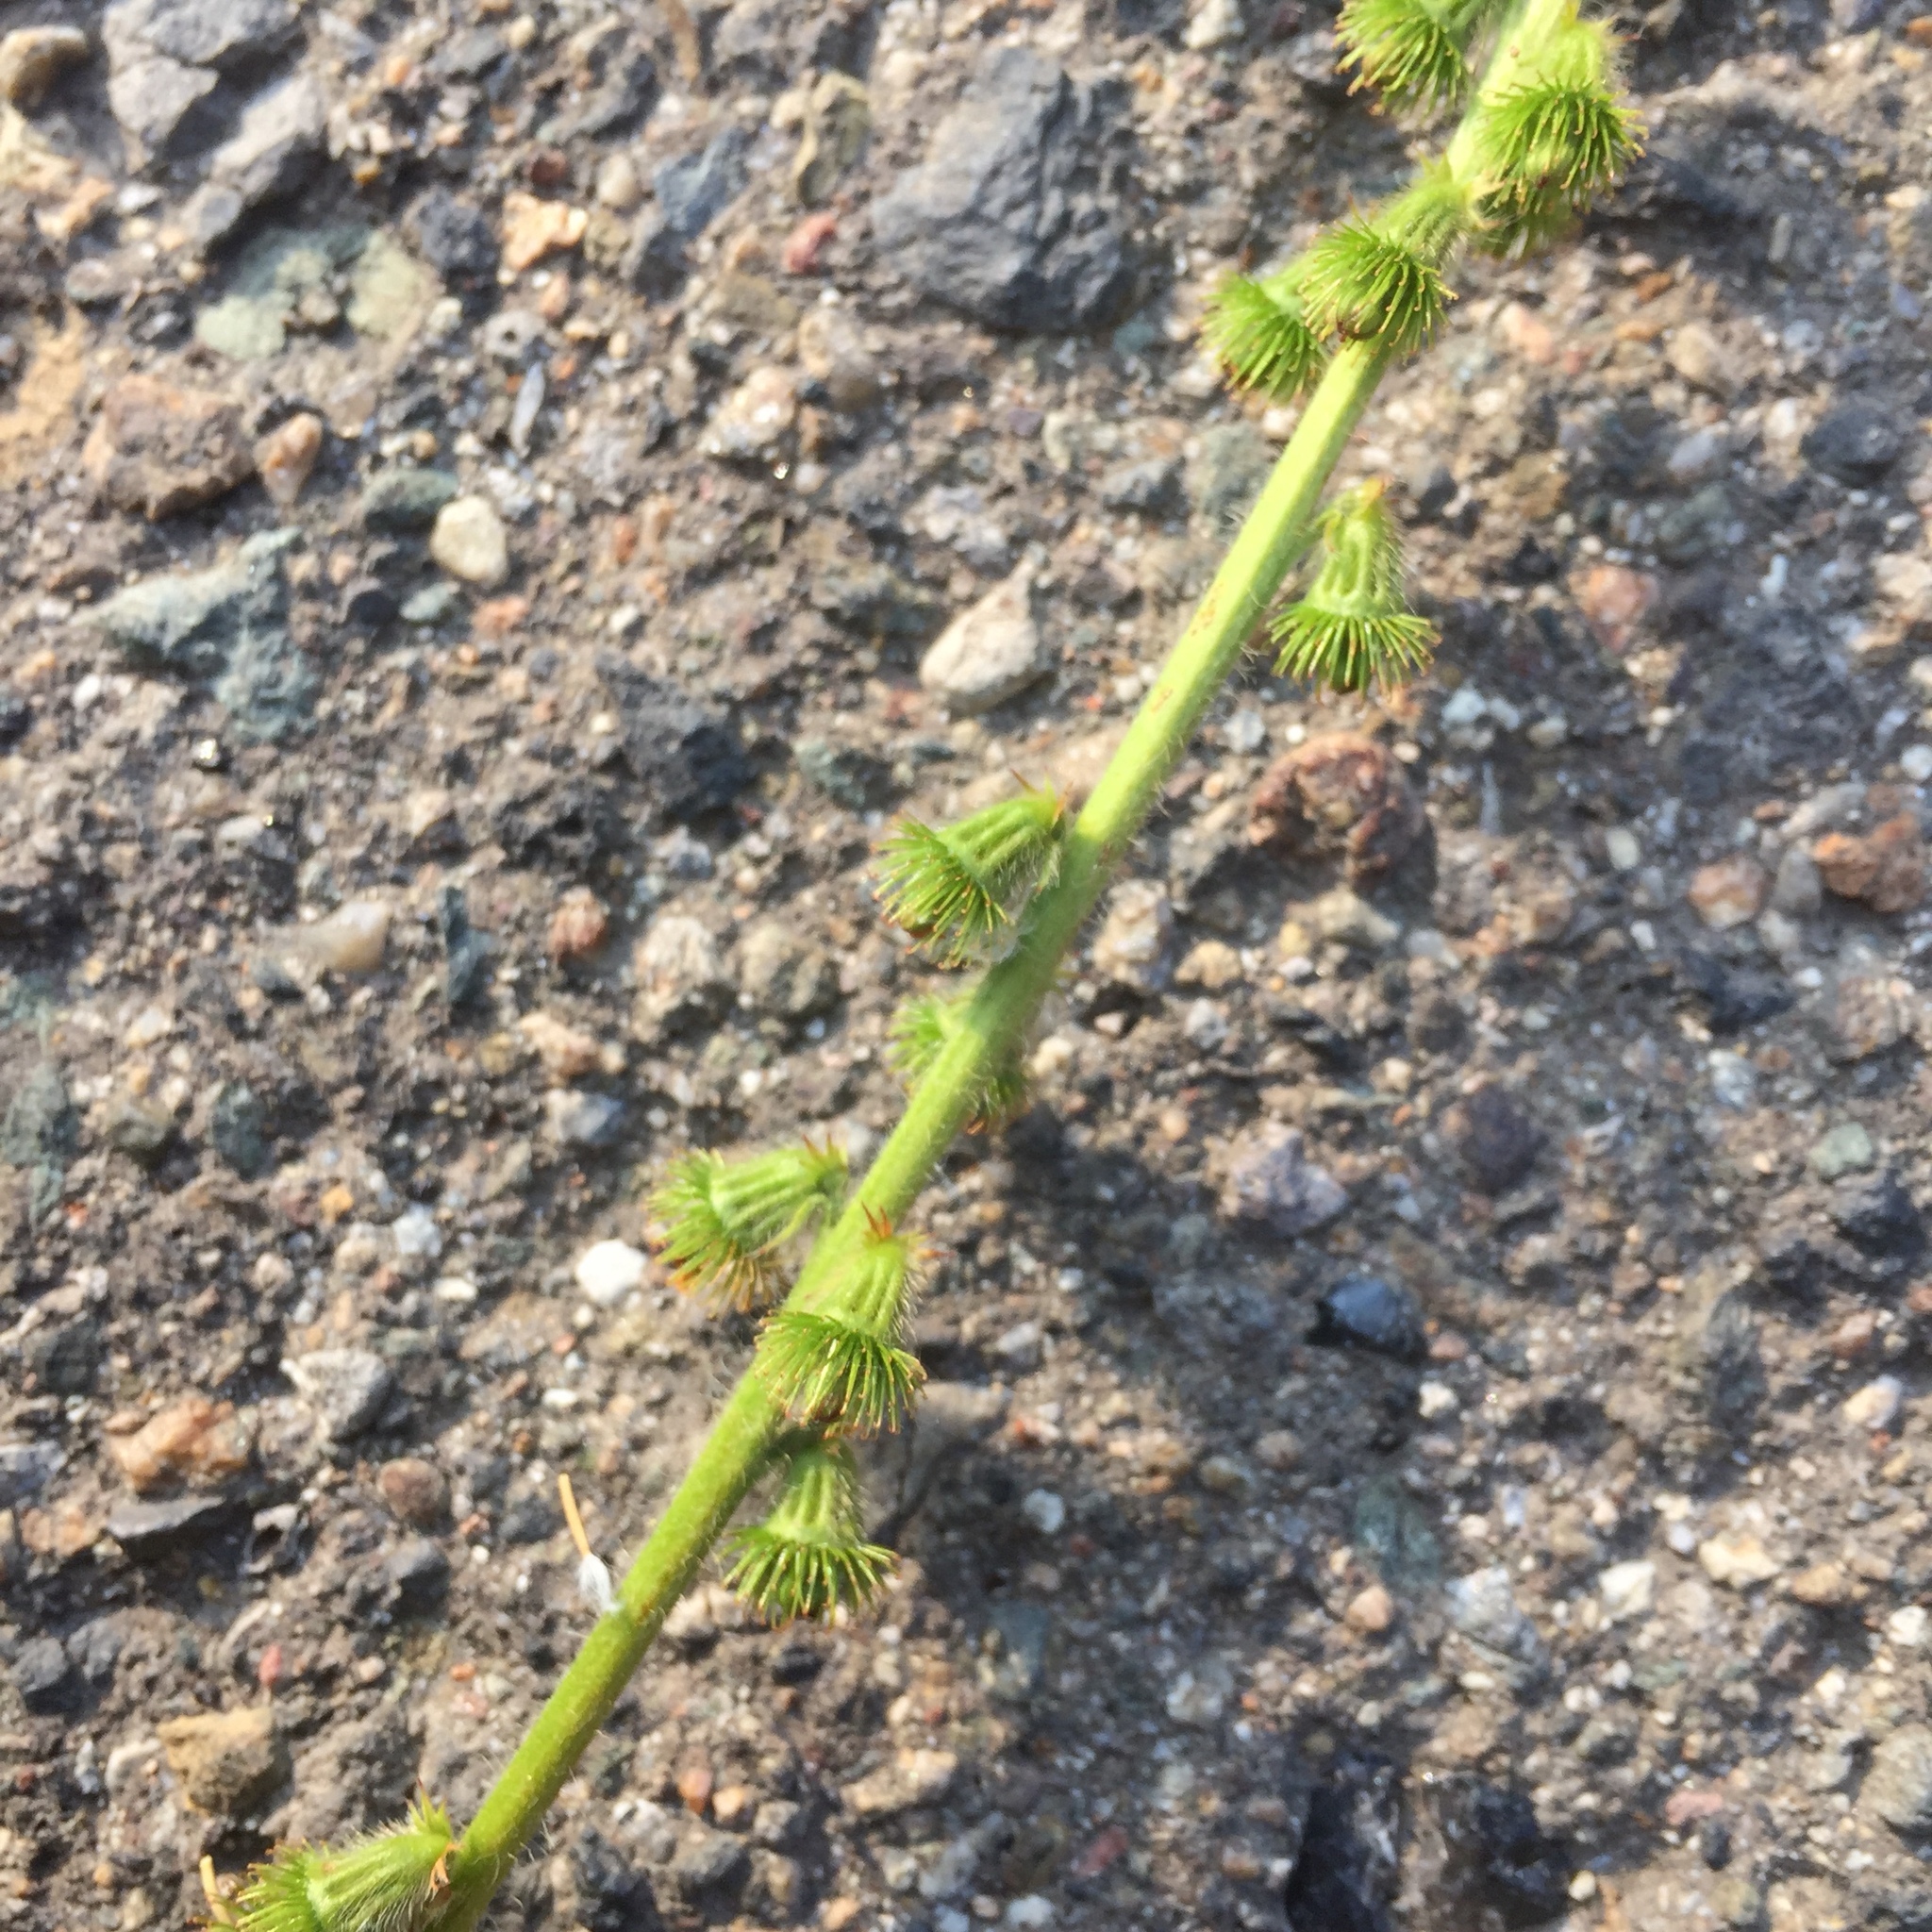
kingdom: Plantae
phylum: Tracheophyta
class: Magnoliopsida
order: Rosales
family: Rosaceae
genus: Agrimonia
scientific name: Agrimonia eupatoria
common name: Agrimony
